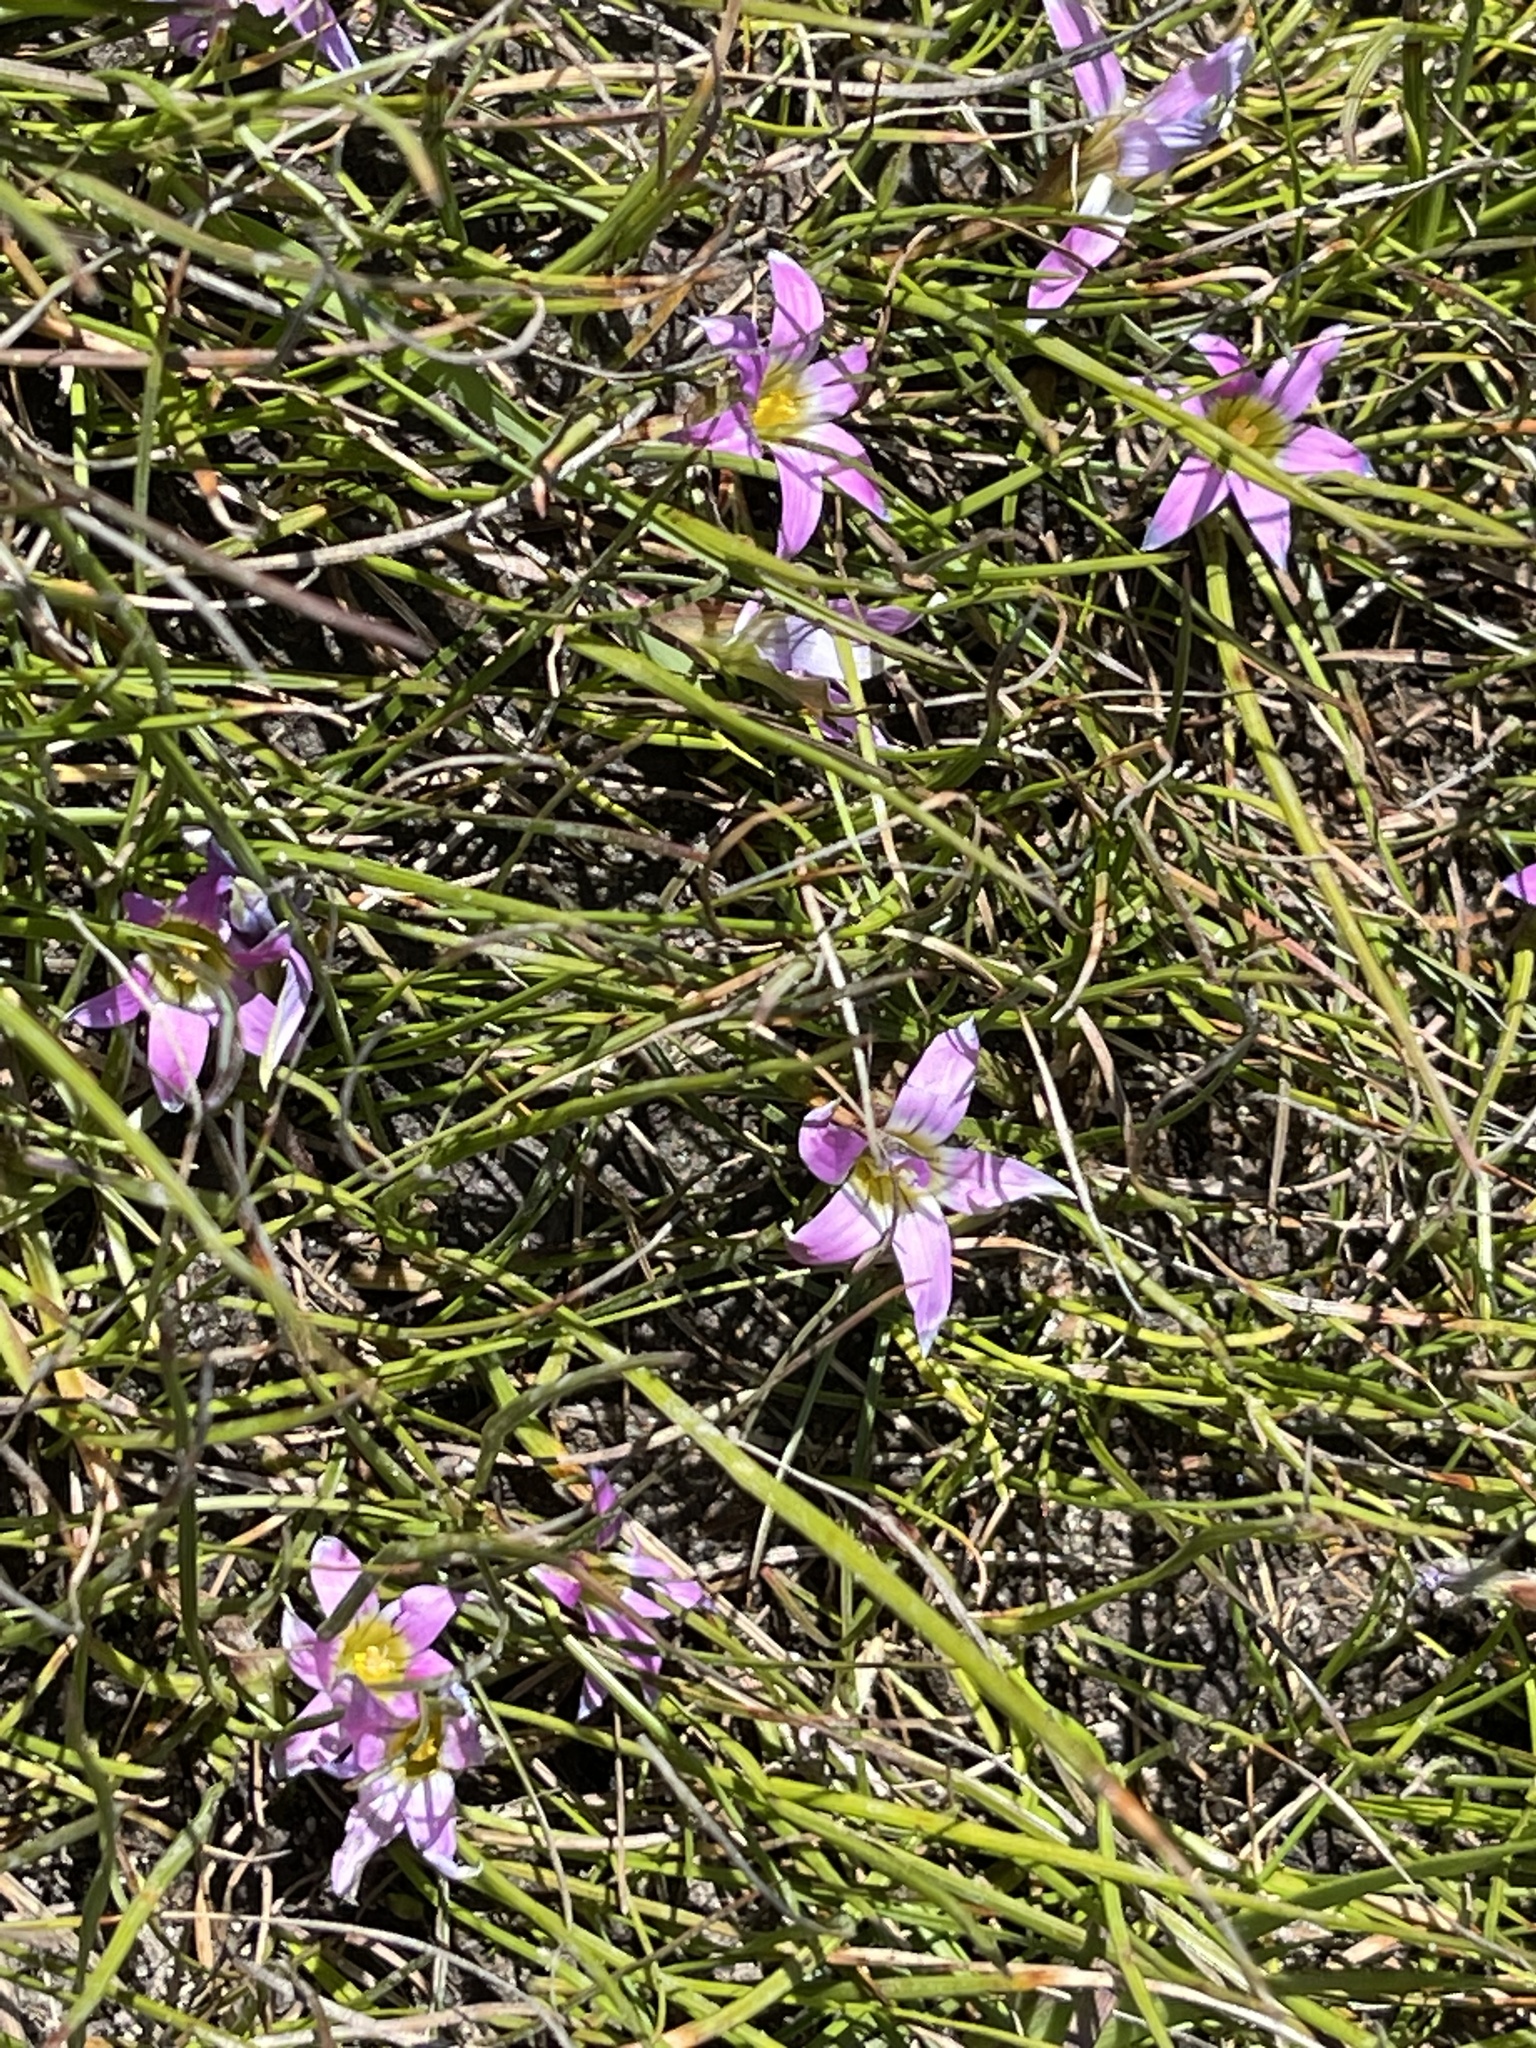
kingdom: Plantae
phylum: Tracheophyta
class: Liliopsida
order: Asparagales
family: Iridaceae
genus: Romulea
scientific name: Romulea rosea
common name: Oniongrass
